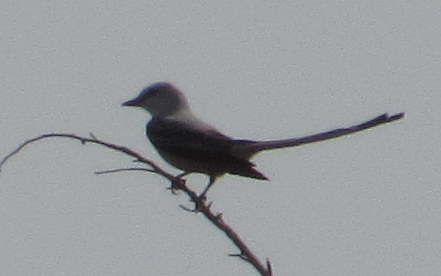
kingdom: Animalia
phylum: Chordata
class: Aves
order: Passeriformes
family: Tyrannidae
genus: Tyrannus
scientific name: Tyrannus forficatus
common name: Scissor-tailed flycatcher
